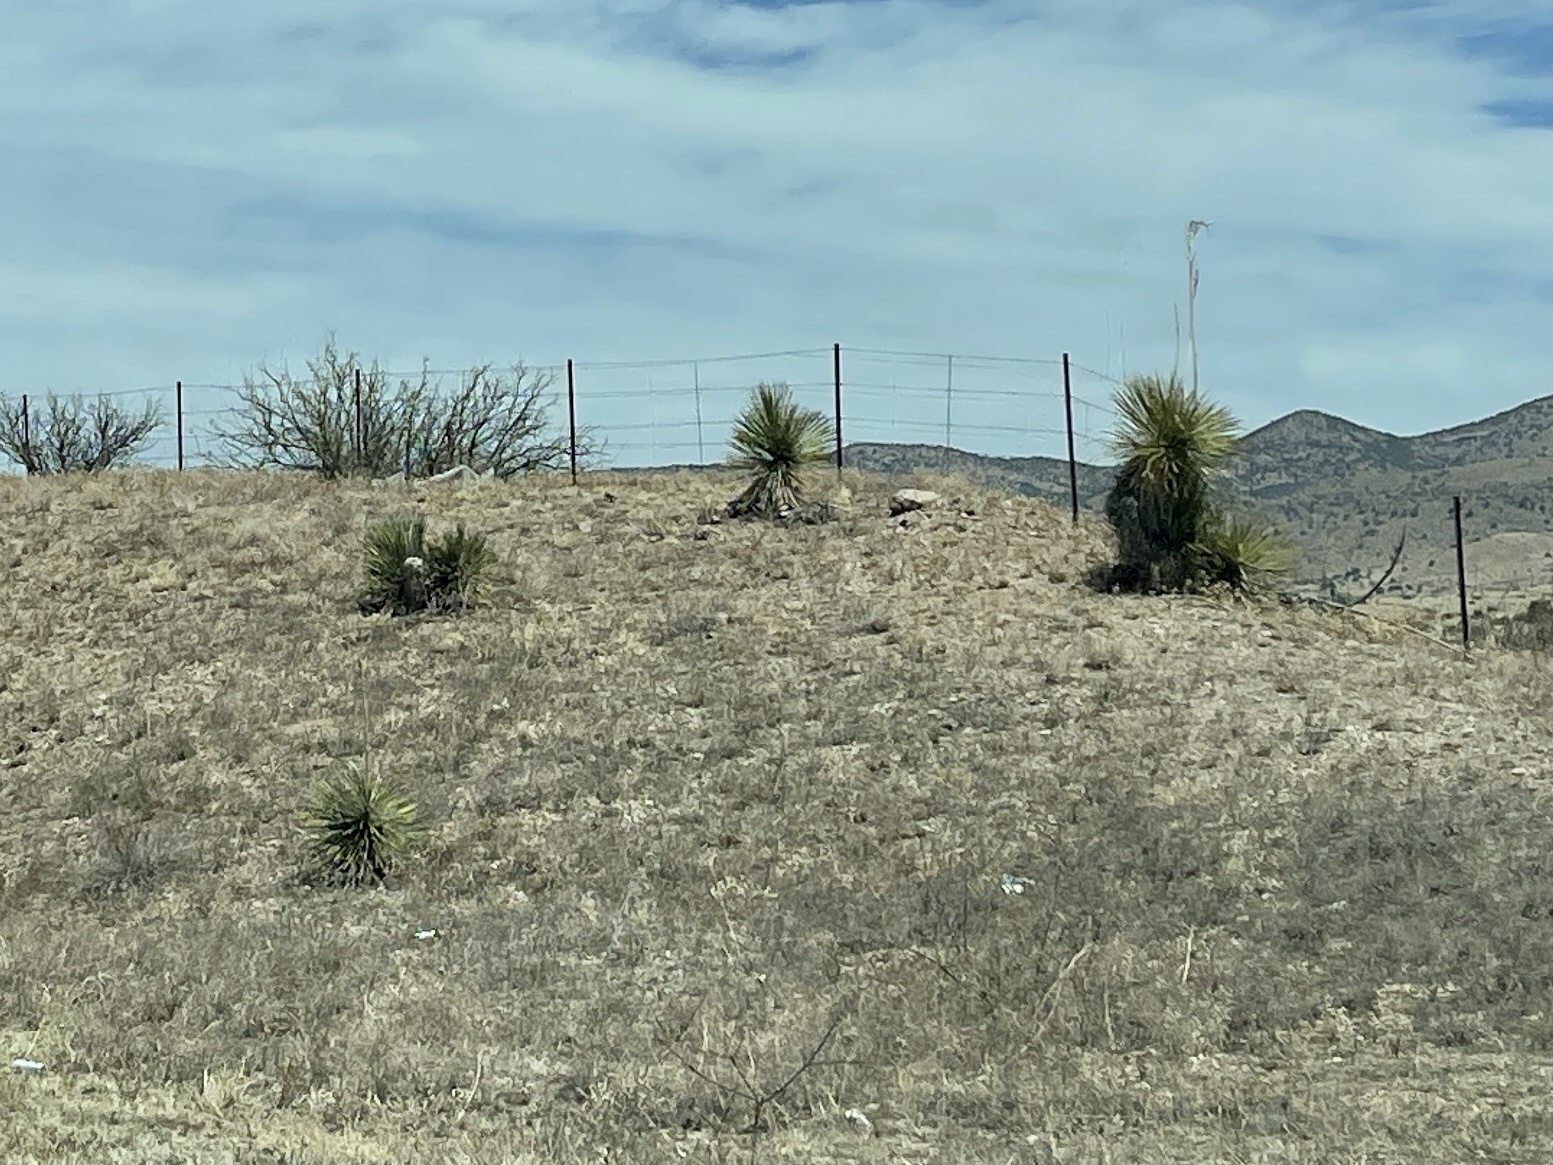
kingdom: Plantae
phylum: Tracheophyta
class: Liliopsida
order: Asparagales
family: Asparagaceae
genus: Yucca
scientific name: Yucca elata
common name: Palmella
